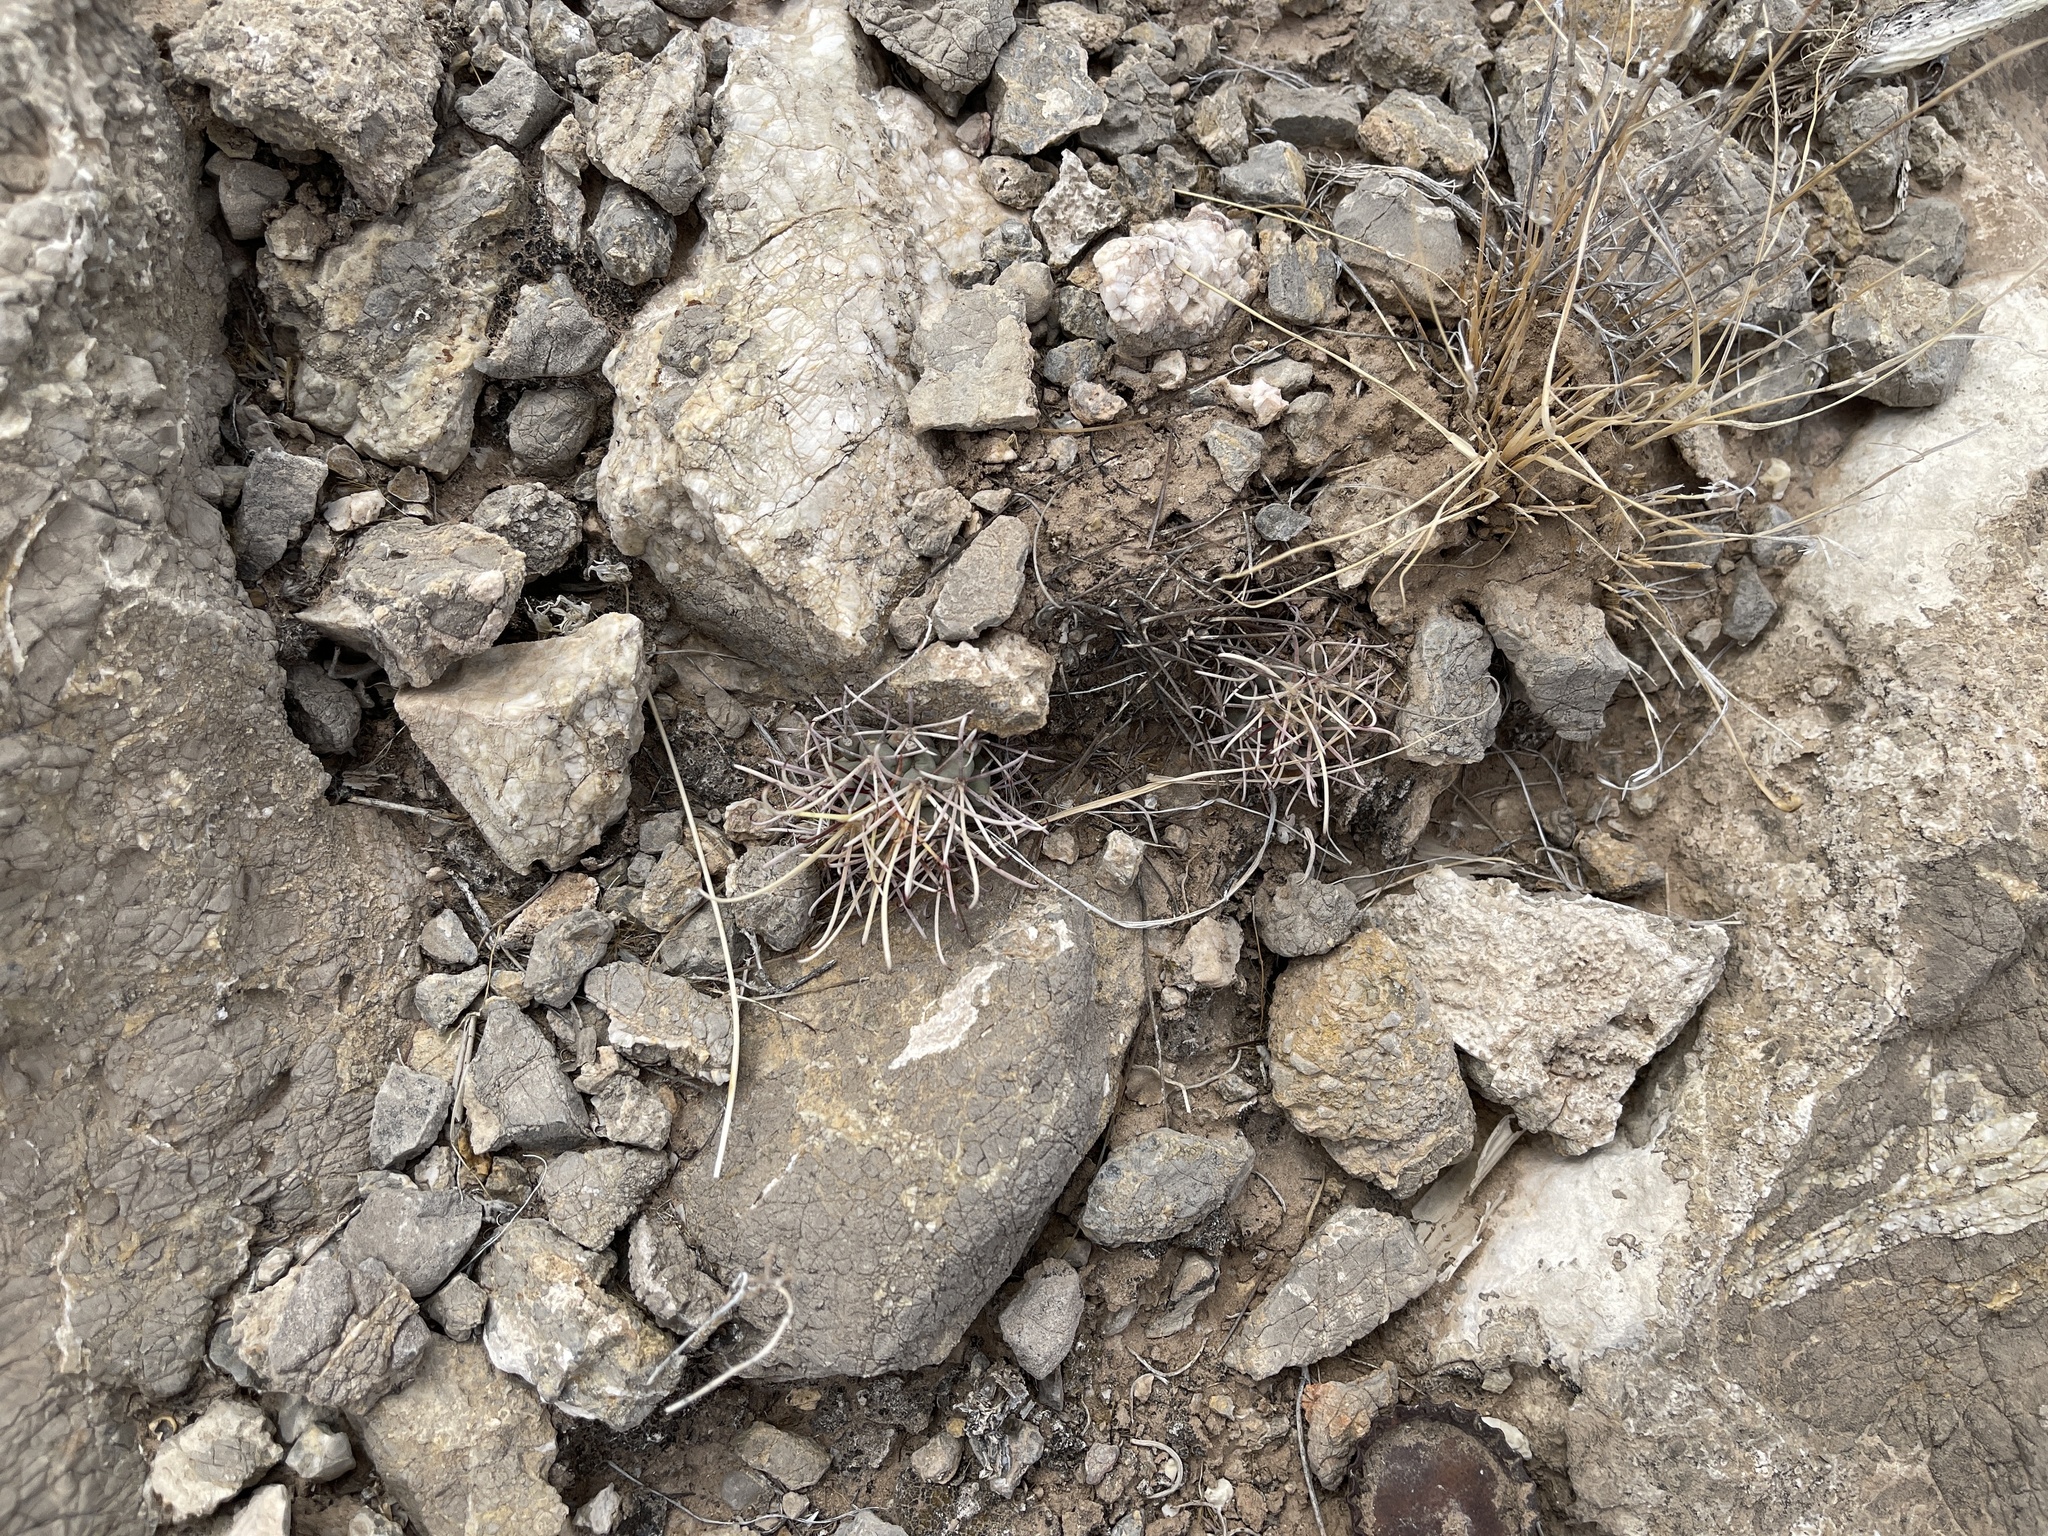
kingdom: Plantae
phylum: Tracheophyta
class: Magnoliopsida
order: Caryophyllales
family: Cactaceae
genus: Ferocactus
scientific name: Ferocactus uncinatus
